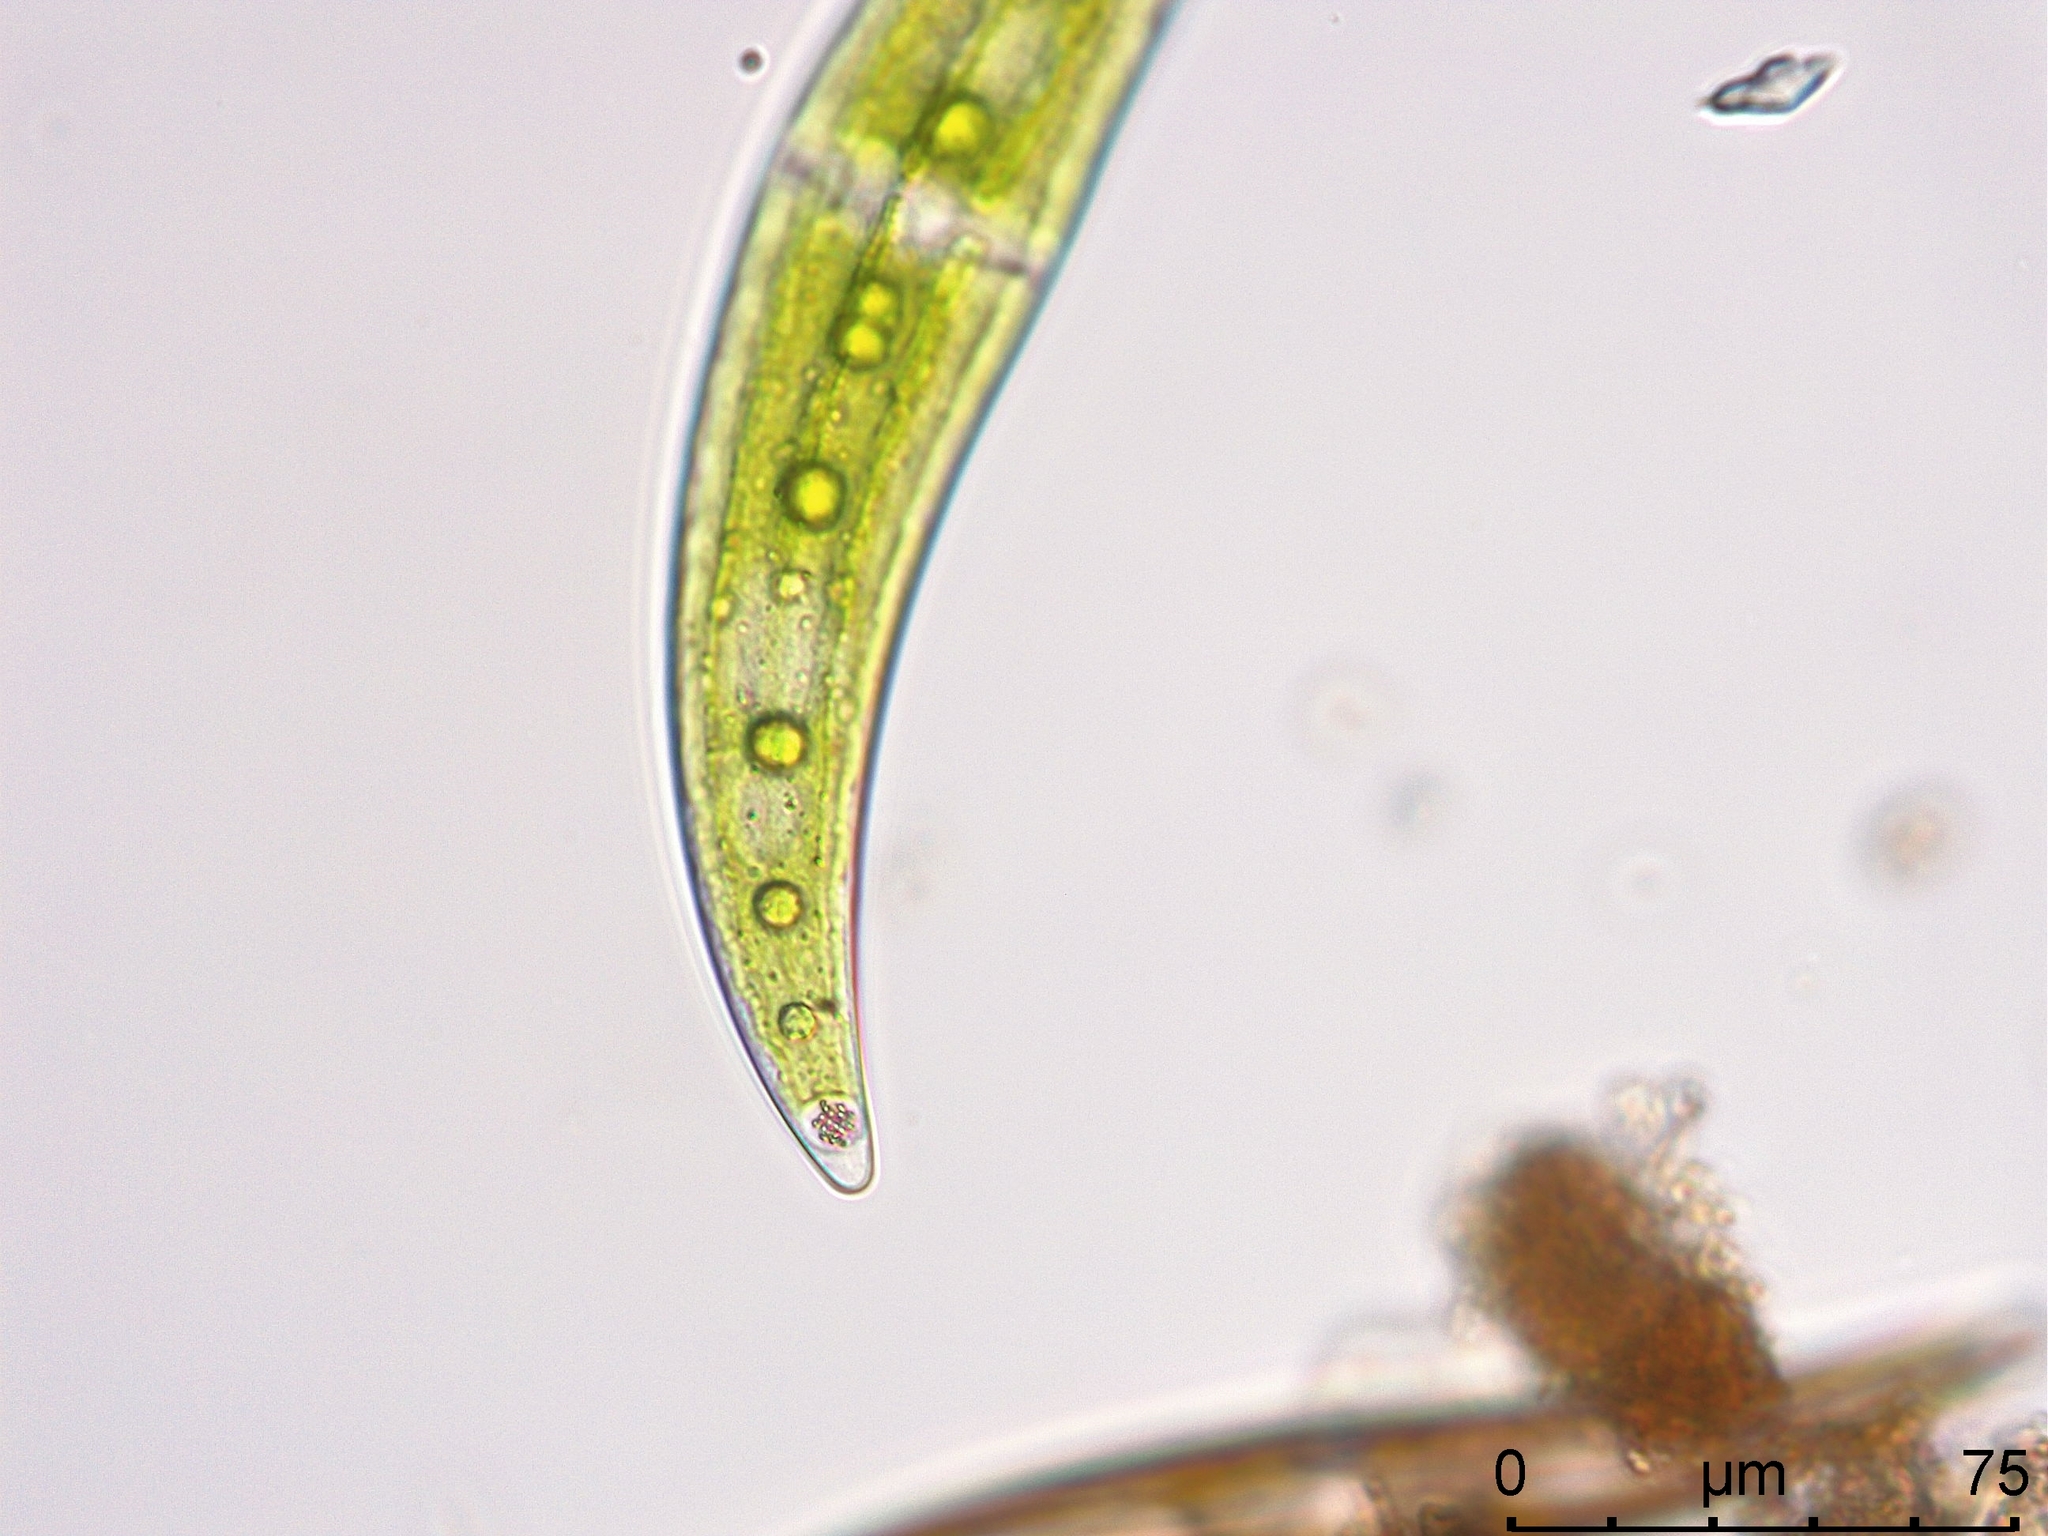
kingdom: Plantae
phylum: Charophyta
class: Zygnematophyceae
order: Zygnematales
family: Closteriaceae
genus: Closterium
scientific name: Closterium moniliferum
